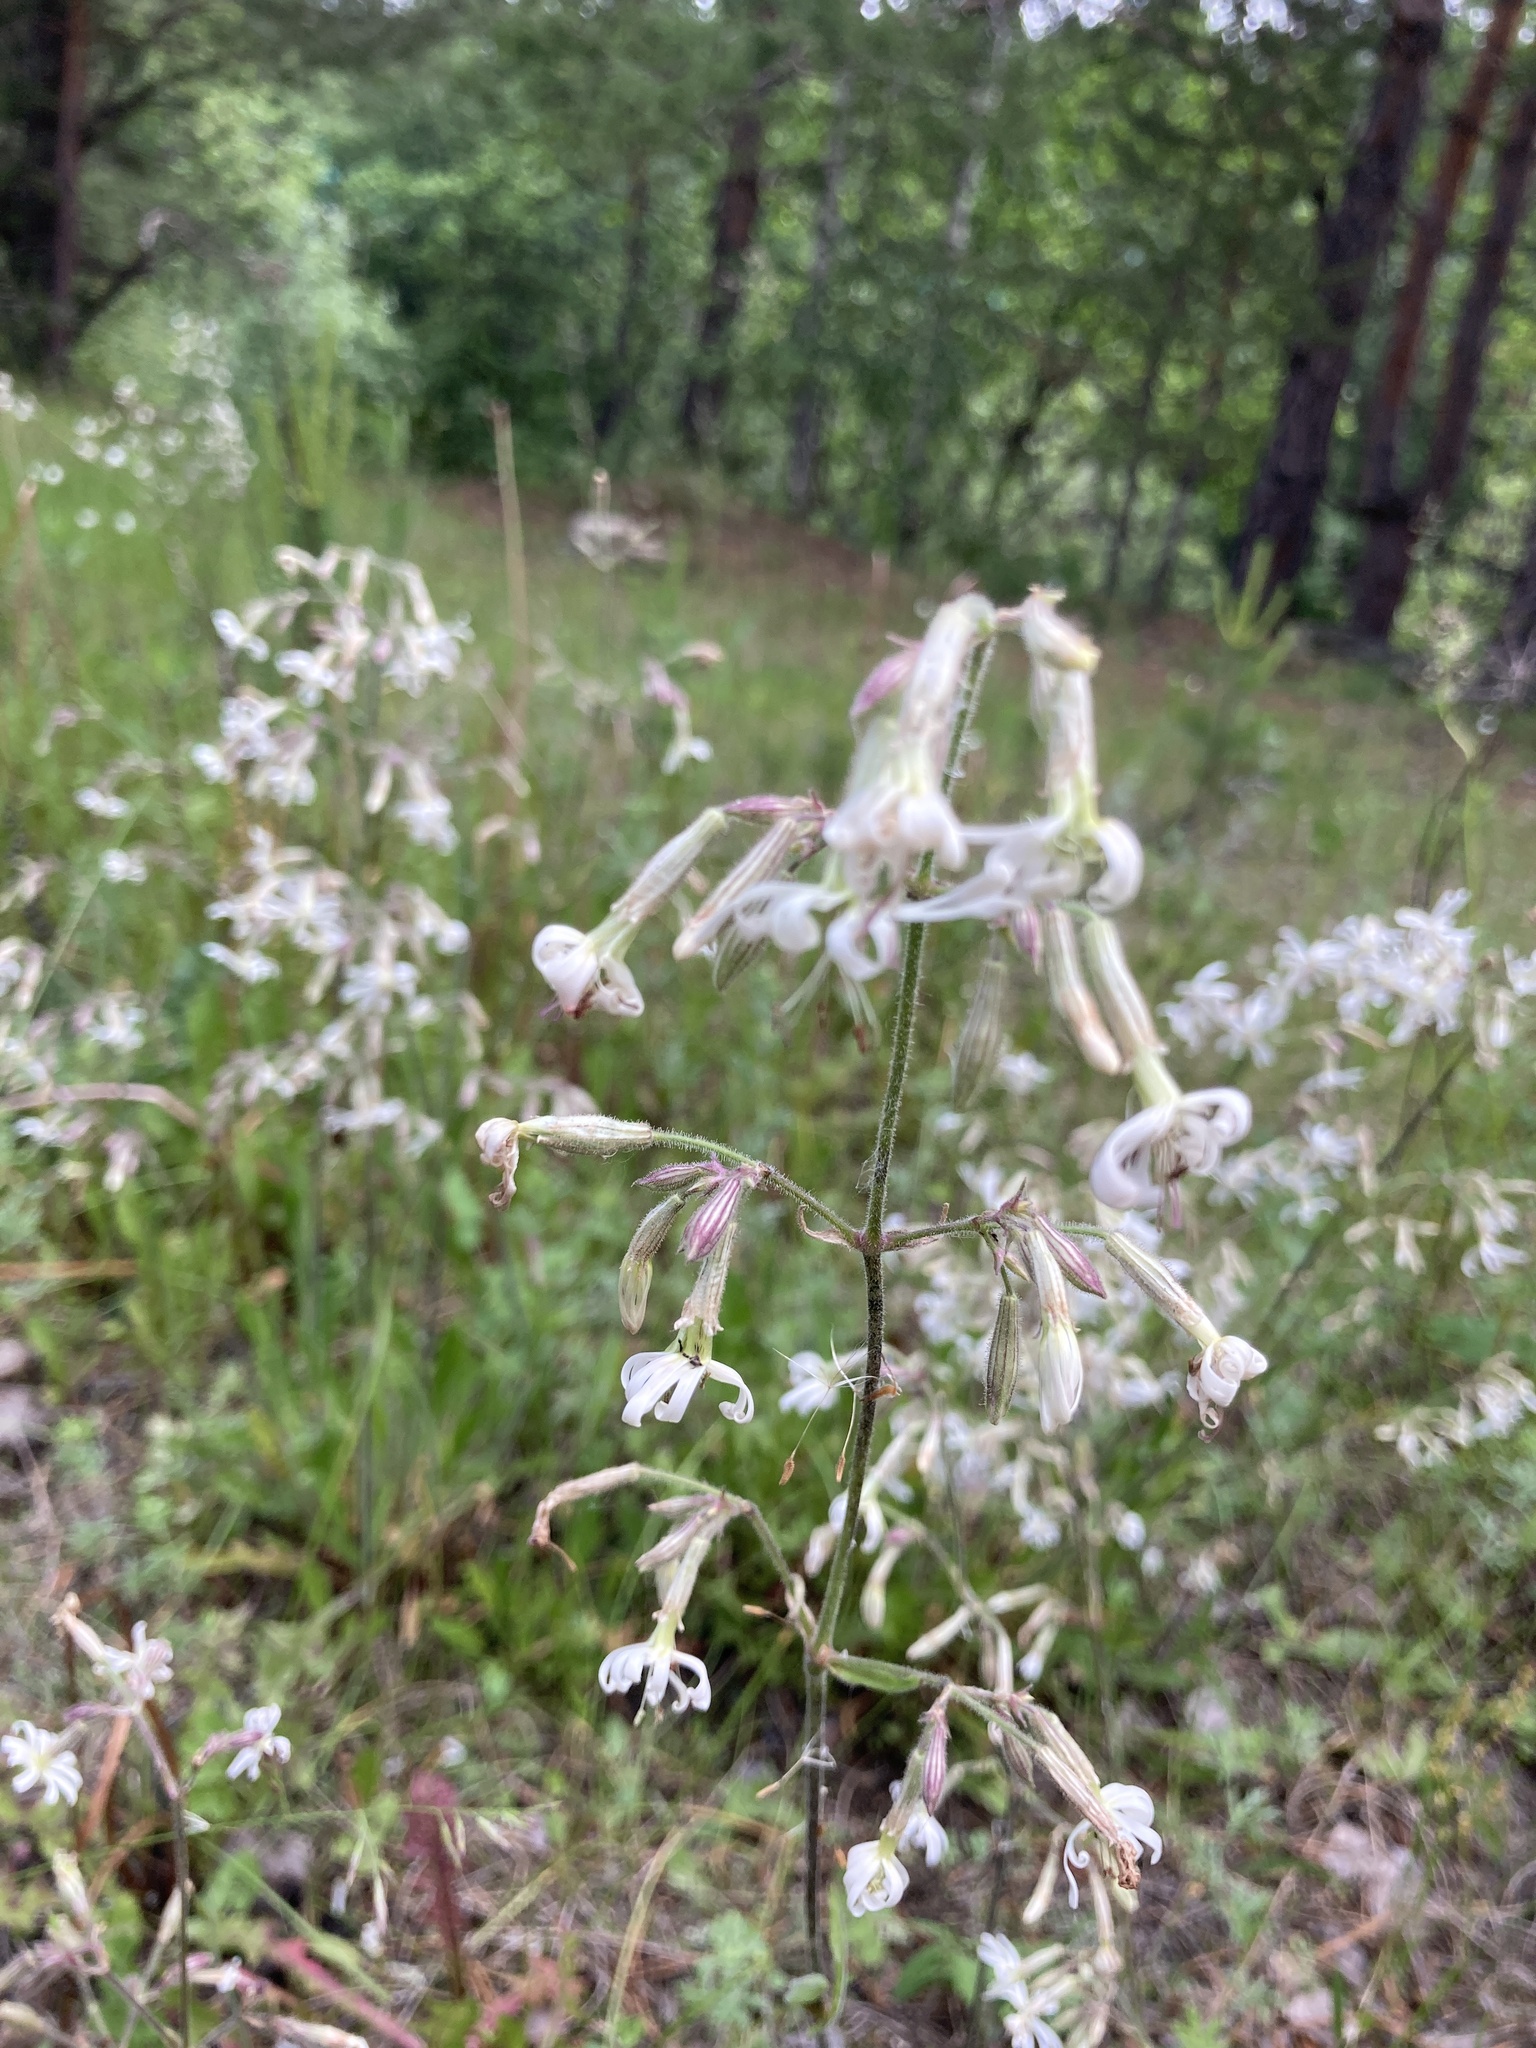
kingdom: Plantae
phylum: Tracheophyta
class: Magnoliopsida
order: Caryophyllales
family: Caryophyllaceae
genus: Silene
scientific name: Silene nutans
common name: Nottingham catchfly
